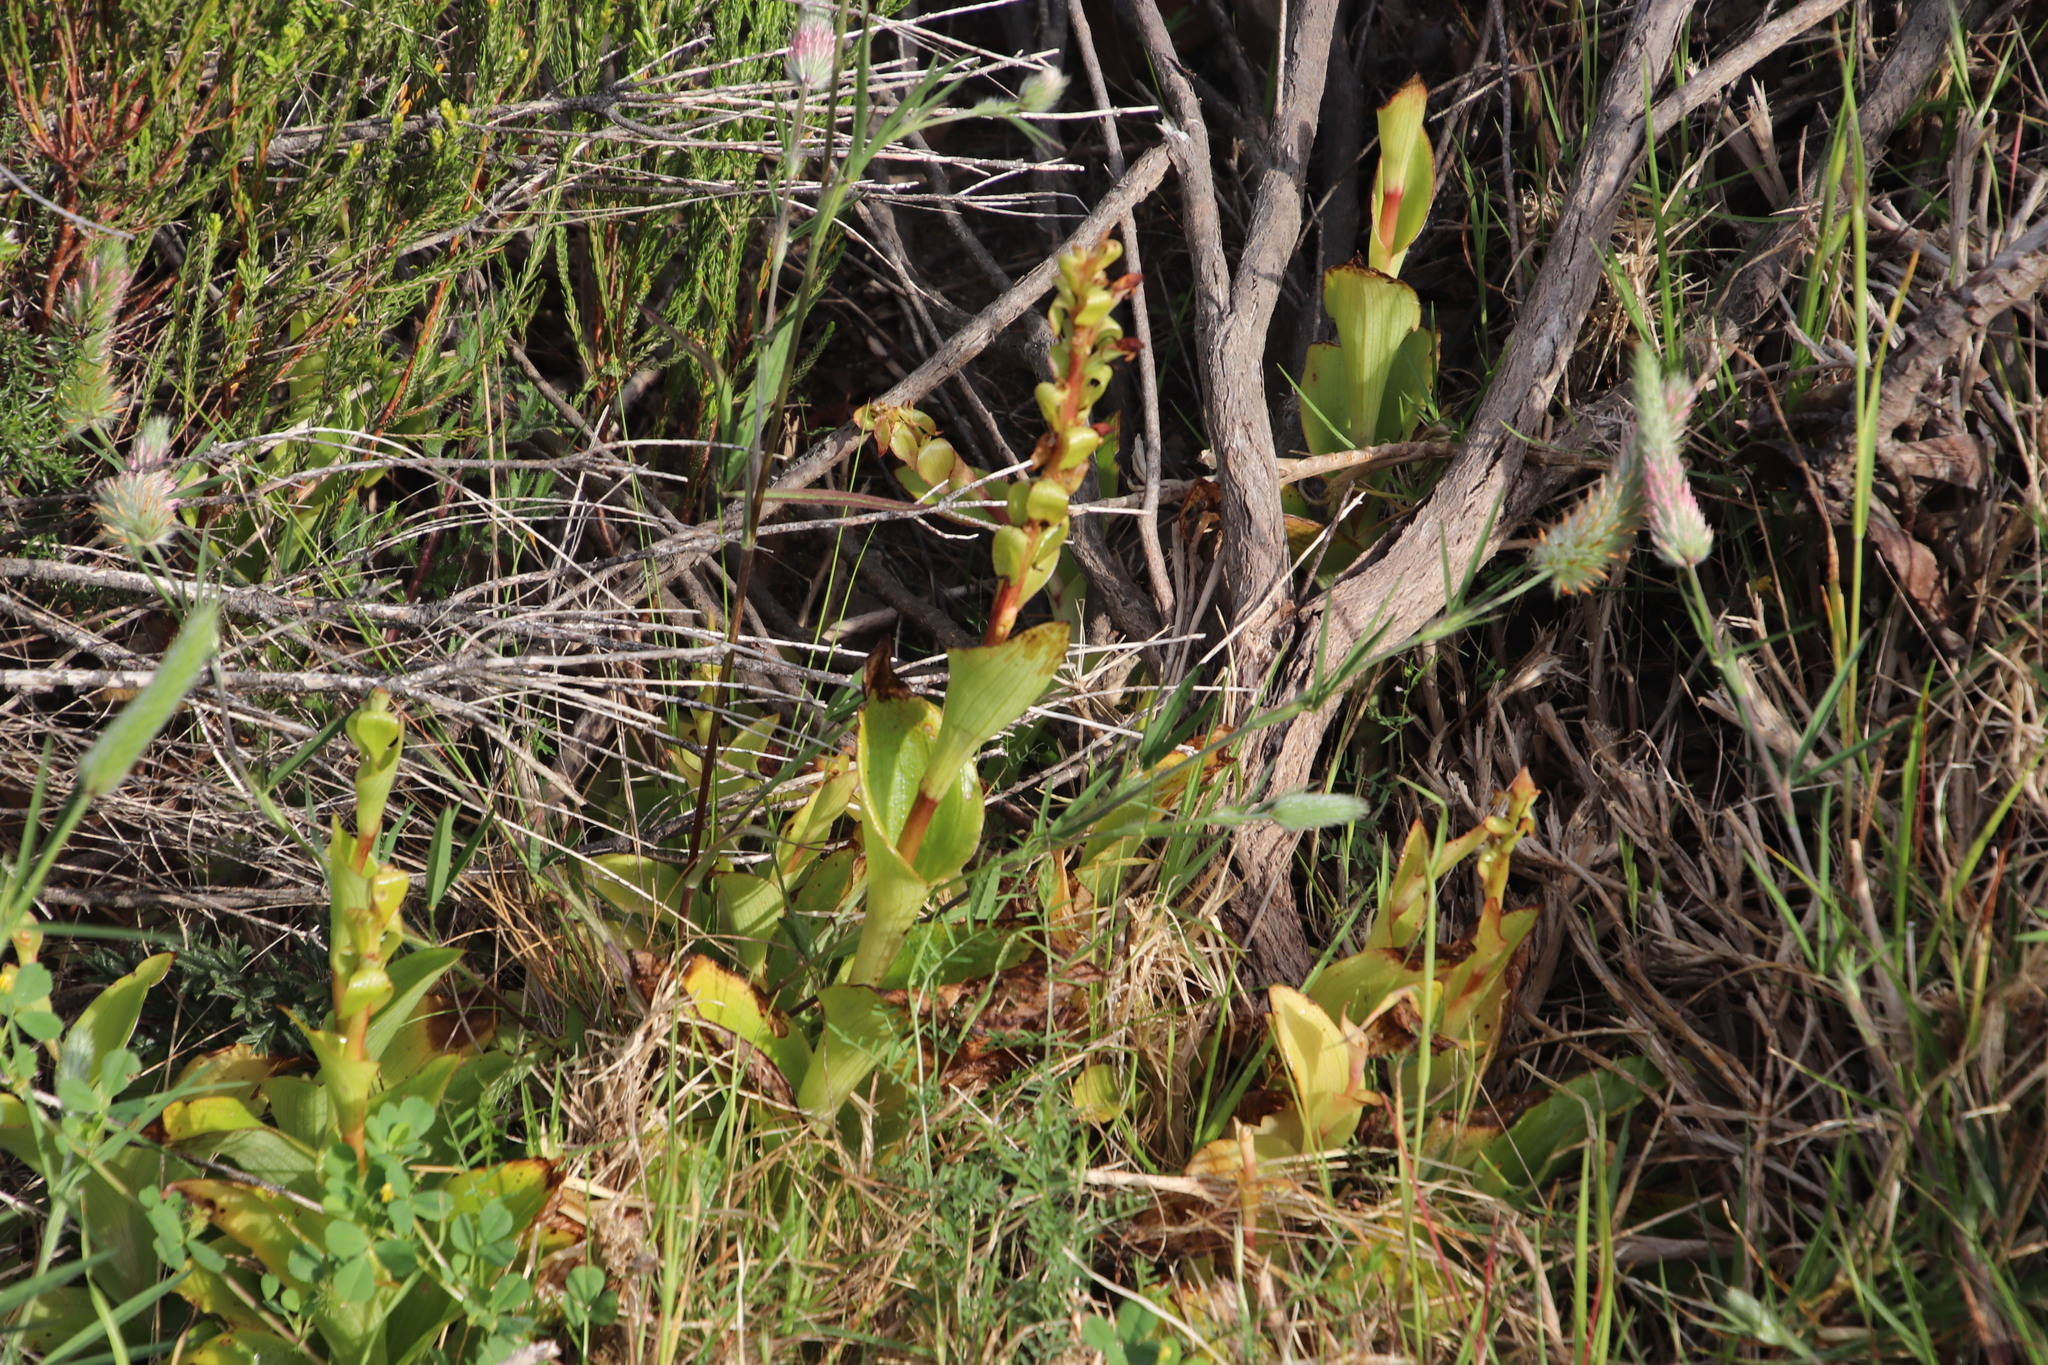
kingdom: Plantae
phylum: Tracheophyta
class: Liliopsida
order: Asparagales
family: Orchidaceae
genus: Satyrium
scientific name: Satyrium odorum
